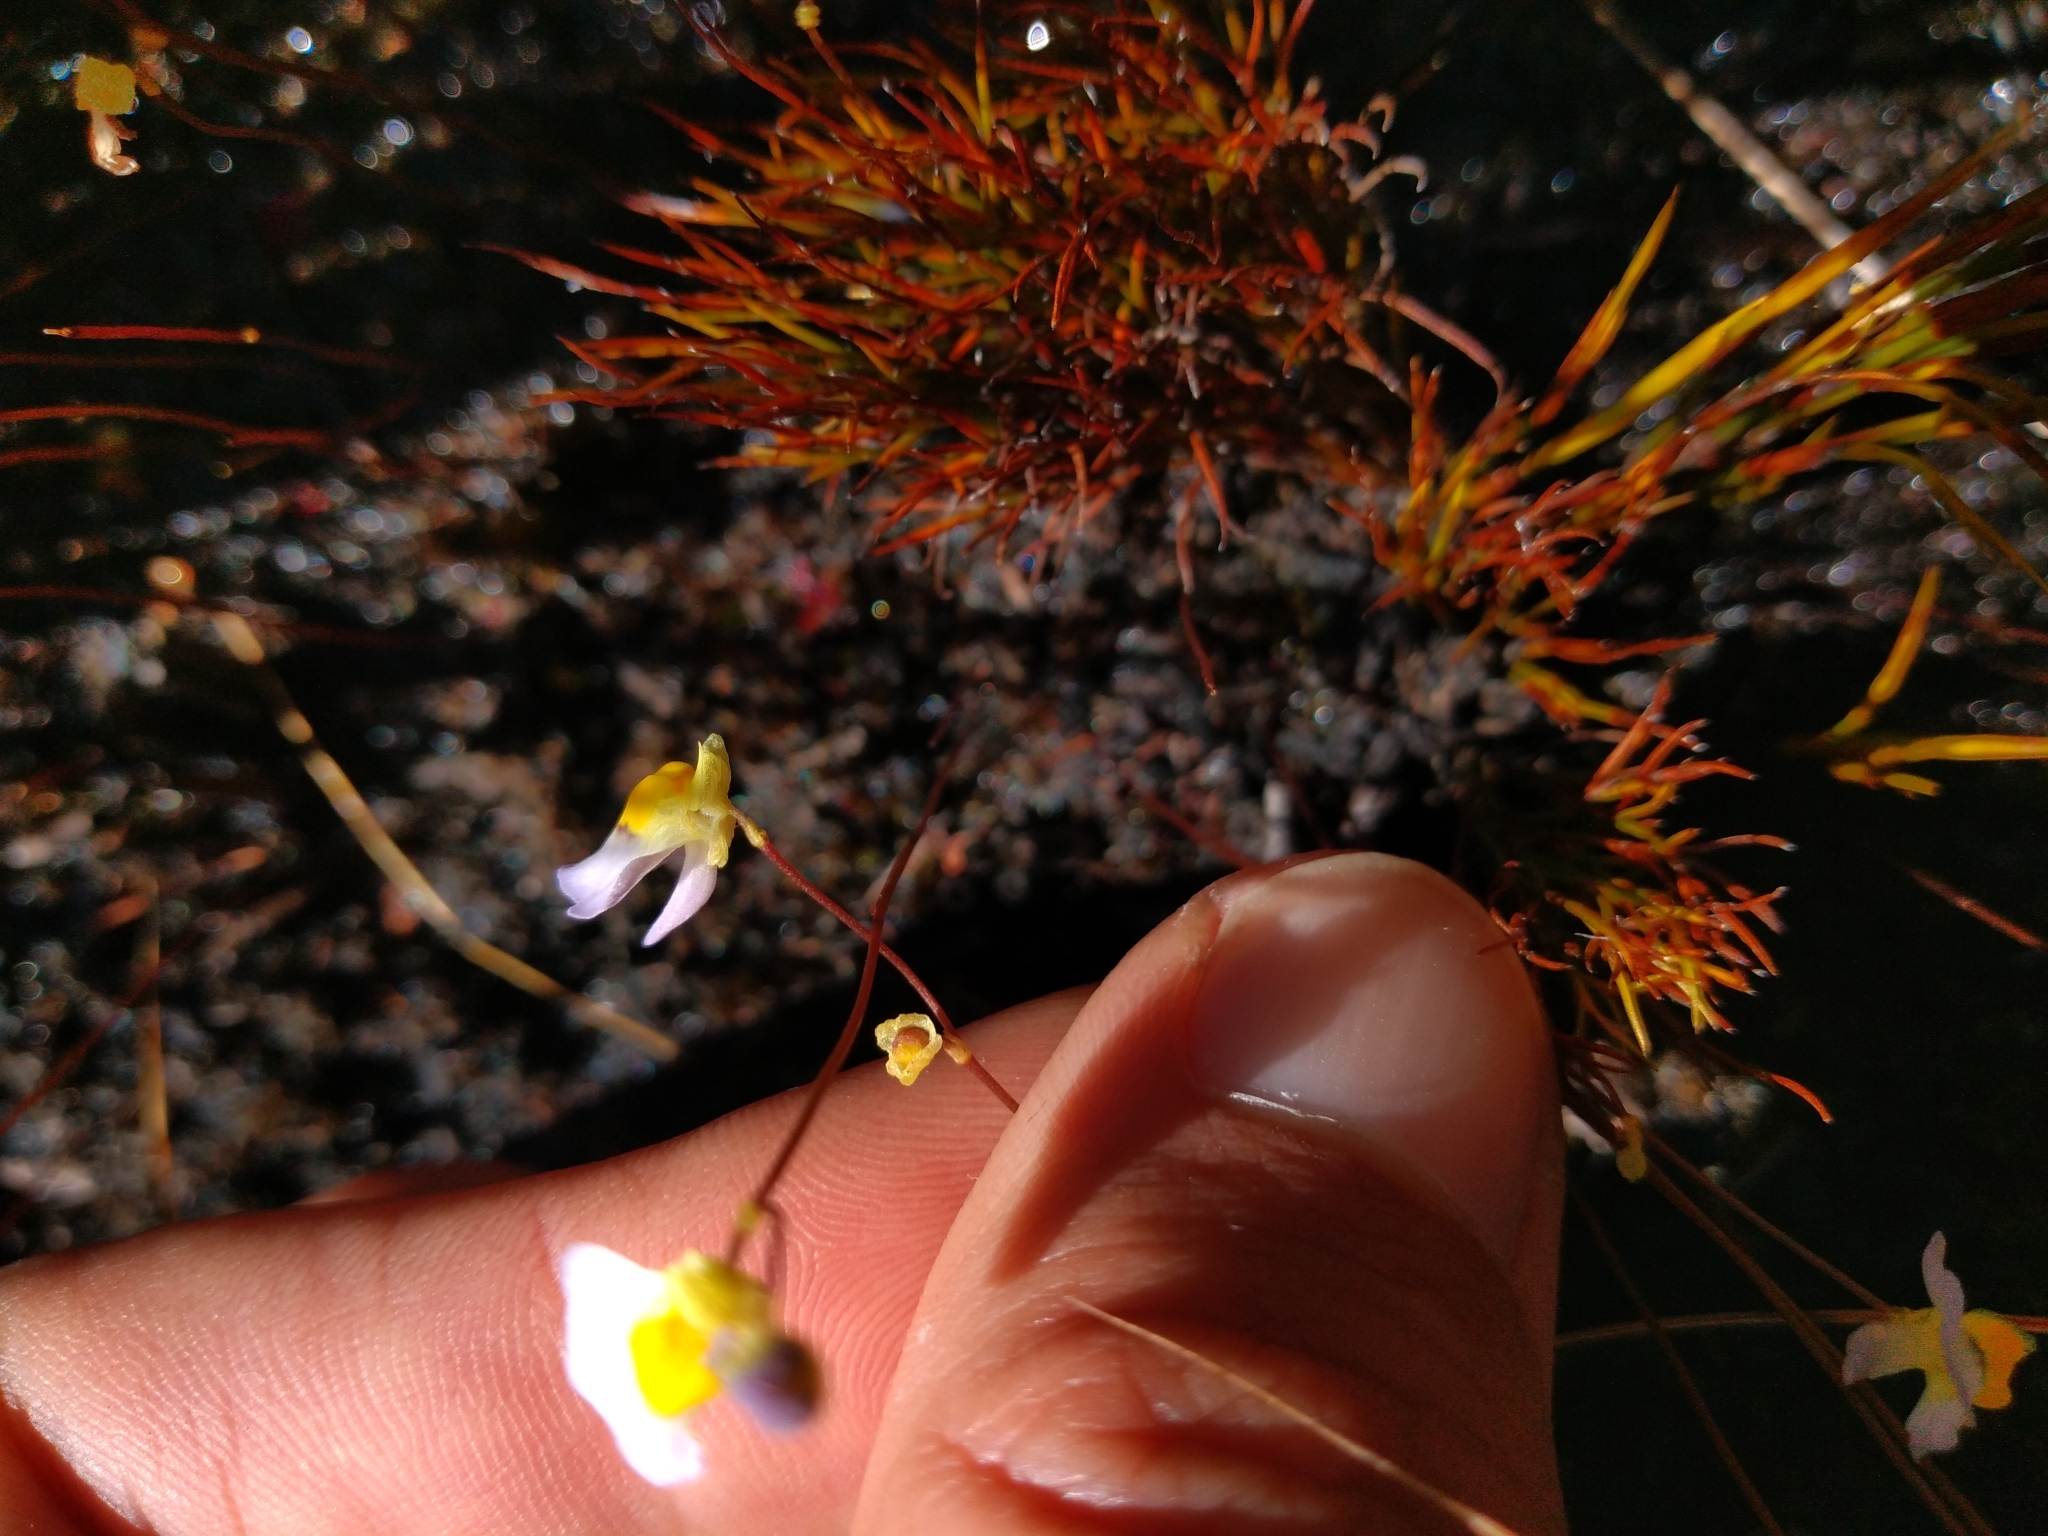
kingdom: Plantae
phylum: Tracheophyta
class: Magnoliopsida
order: Lamiales
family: Lentibulariaceae
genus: Utricularia
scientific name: Utricularia bisquamata
